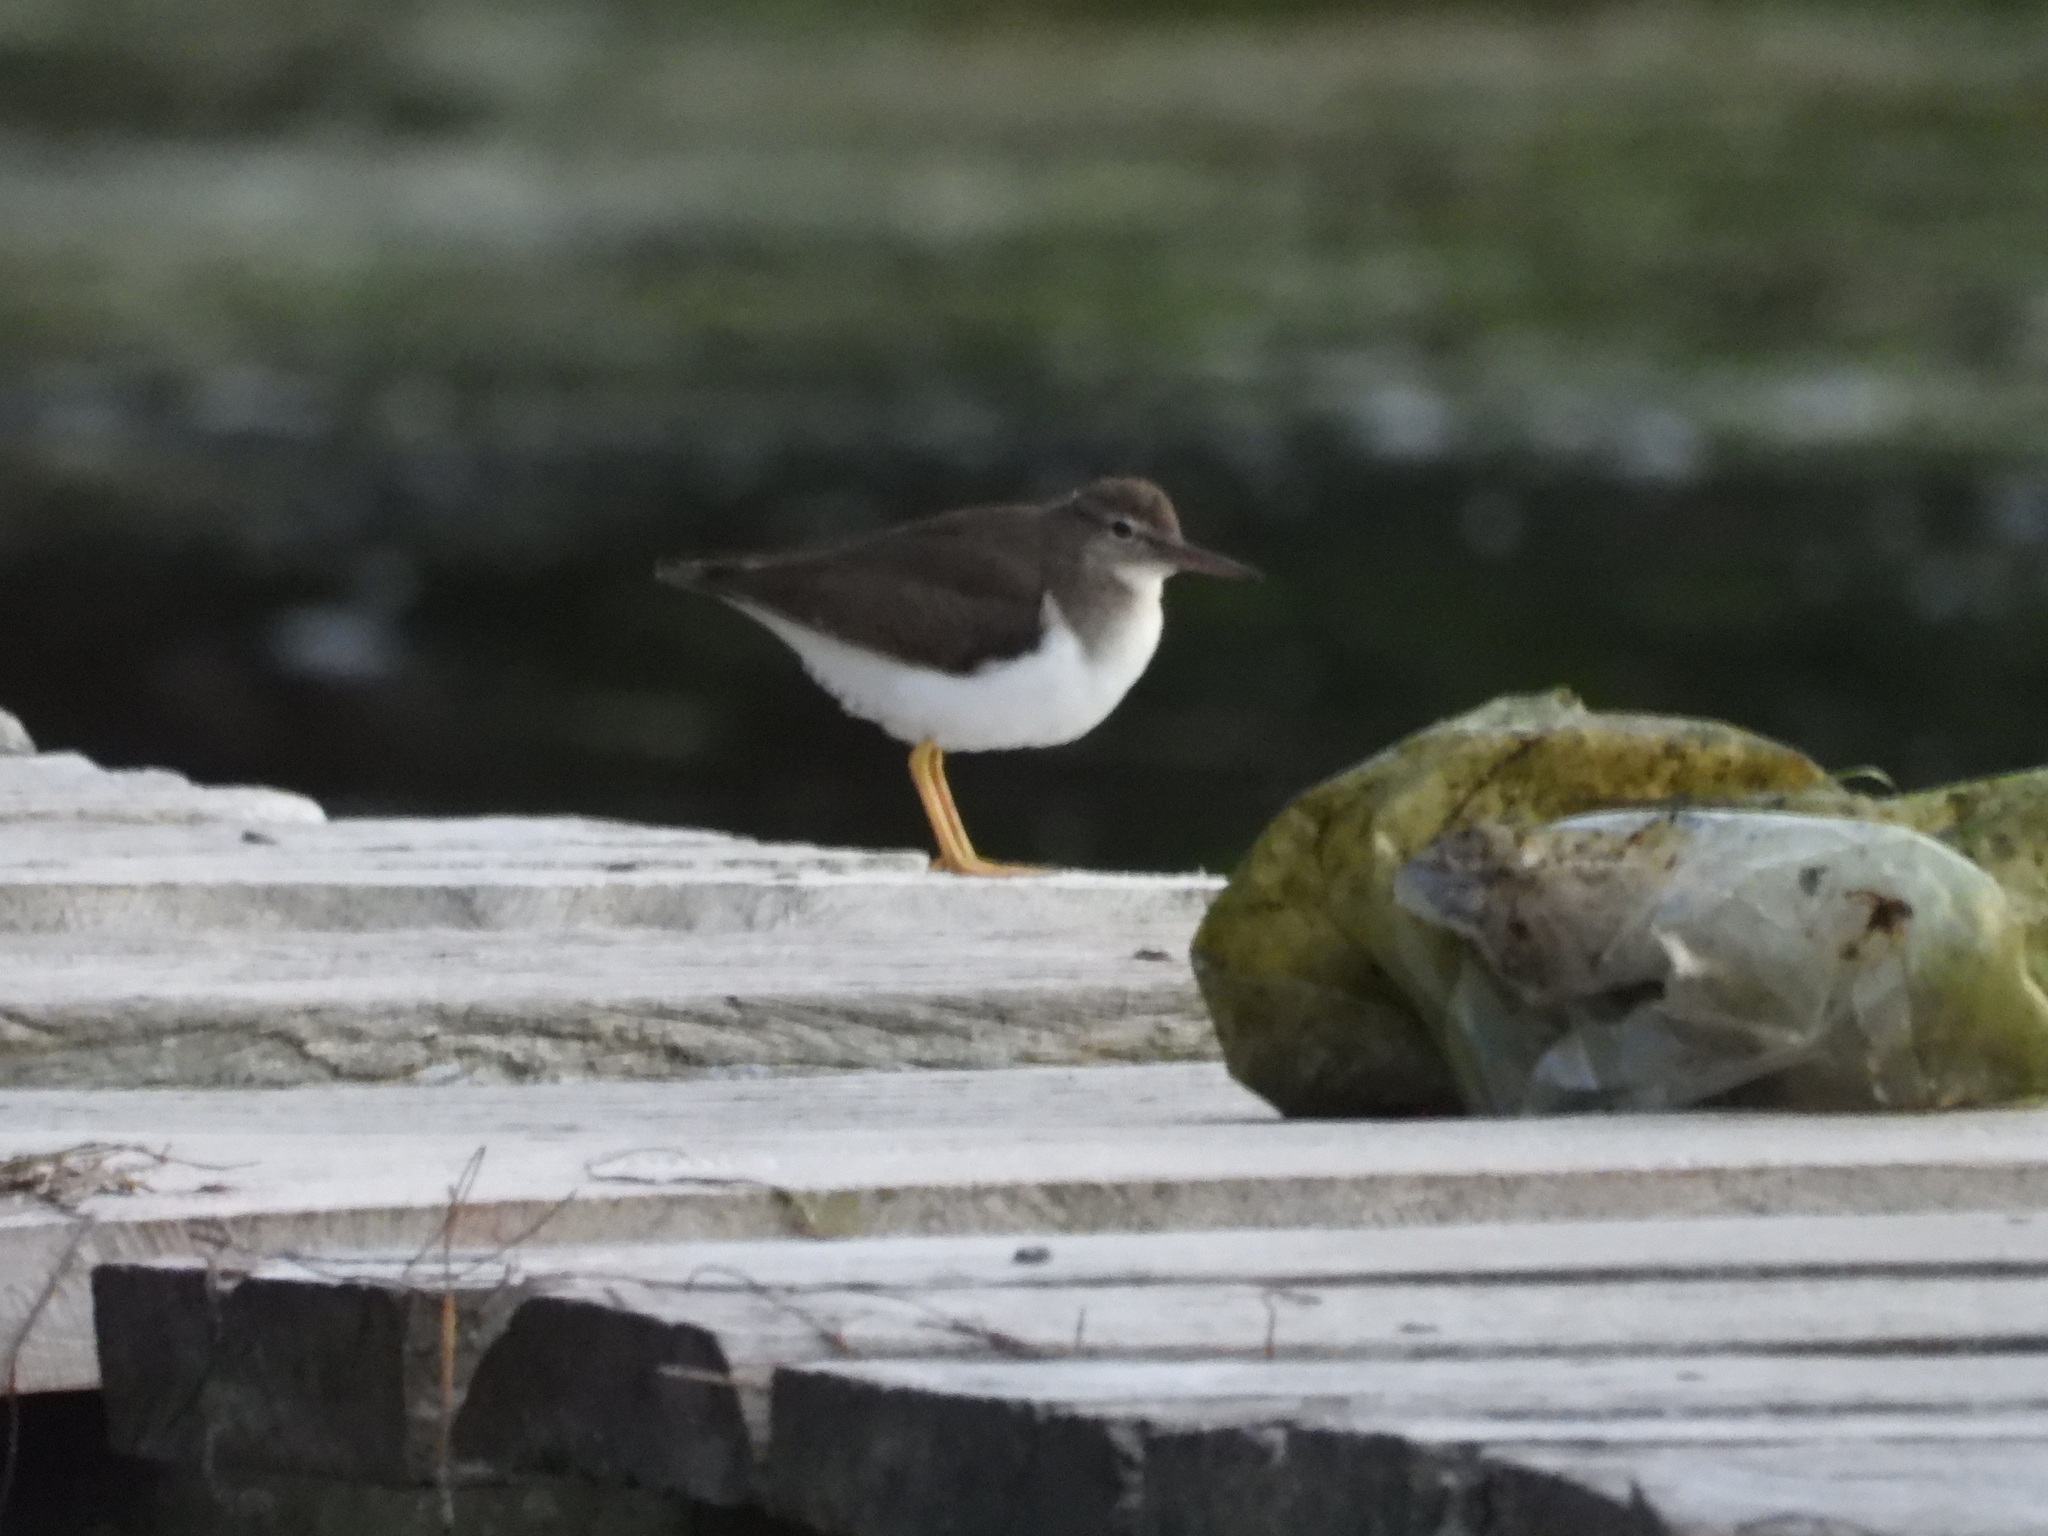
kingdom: Animalia
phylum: Chordata
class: Aves
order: Charadriiformes
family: Scolopacidae
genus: Actitis
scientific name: Actitis macularius
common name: Spotted sandpiper
